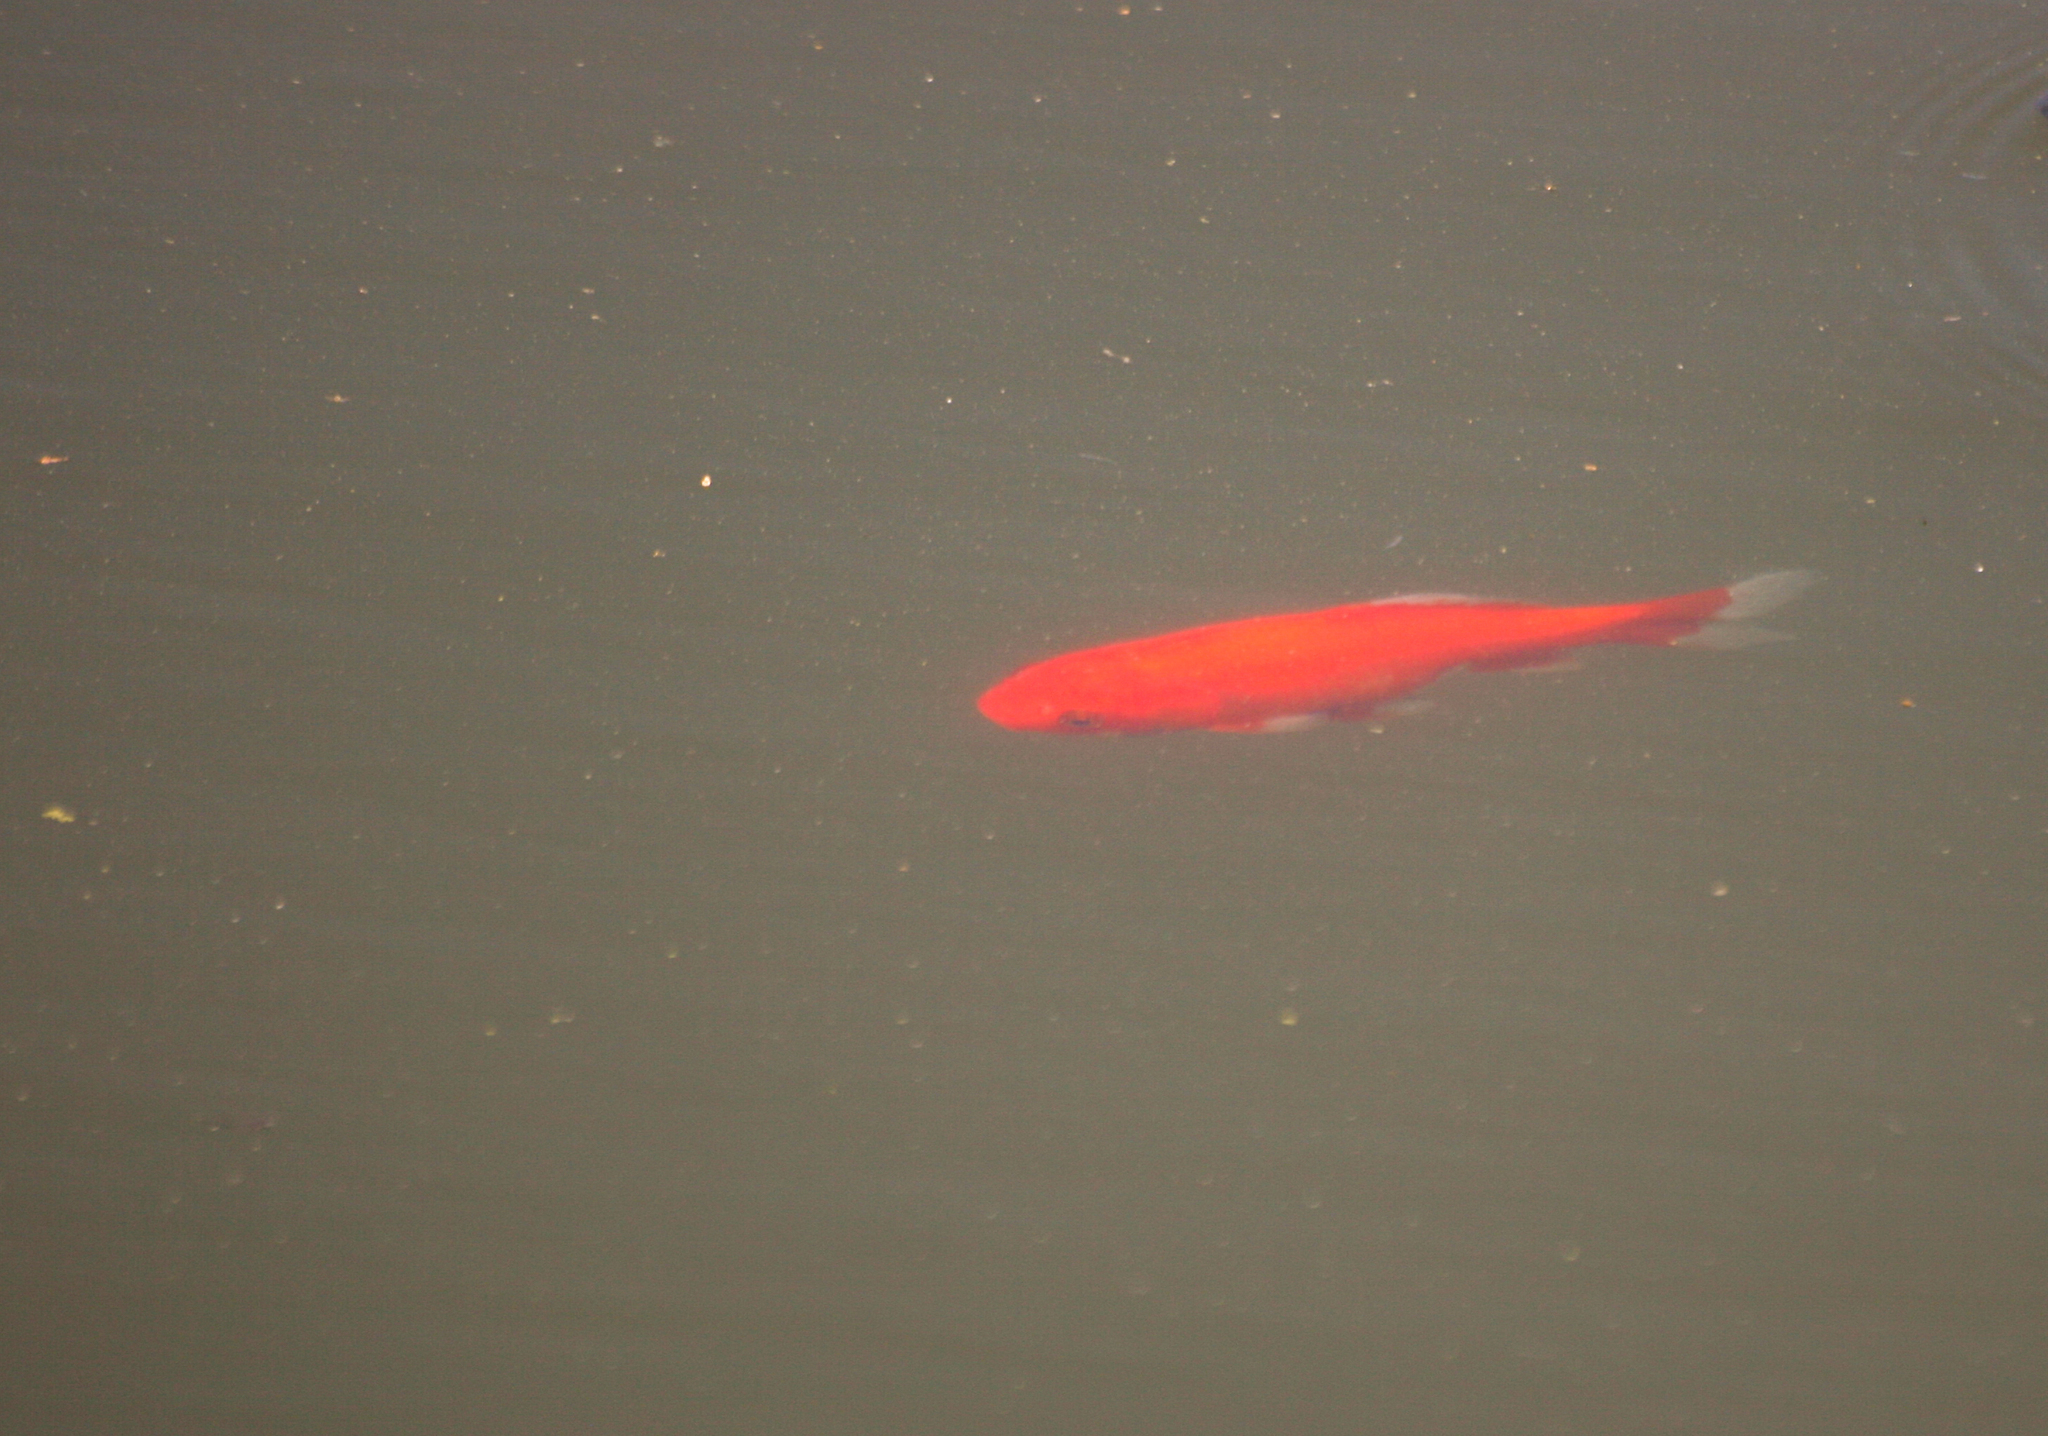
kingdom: Animalia
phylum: Chordata
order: Cypriniformes
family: Cyprinidae
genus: Carassius
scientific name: Carassius auratus
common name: Goldfish
